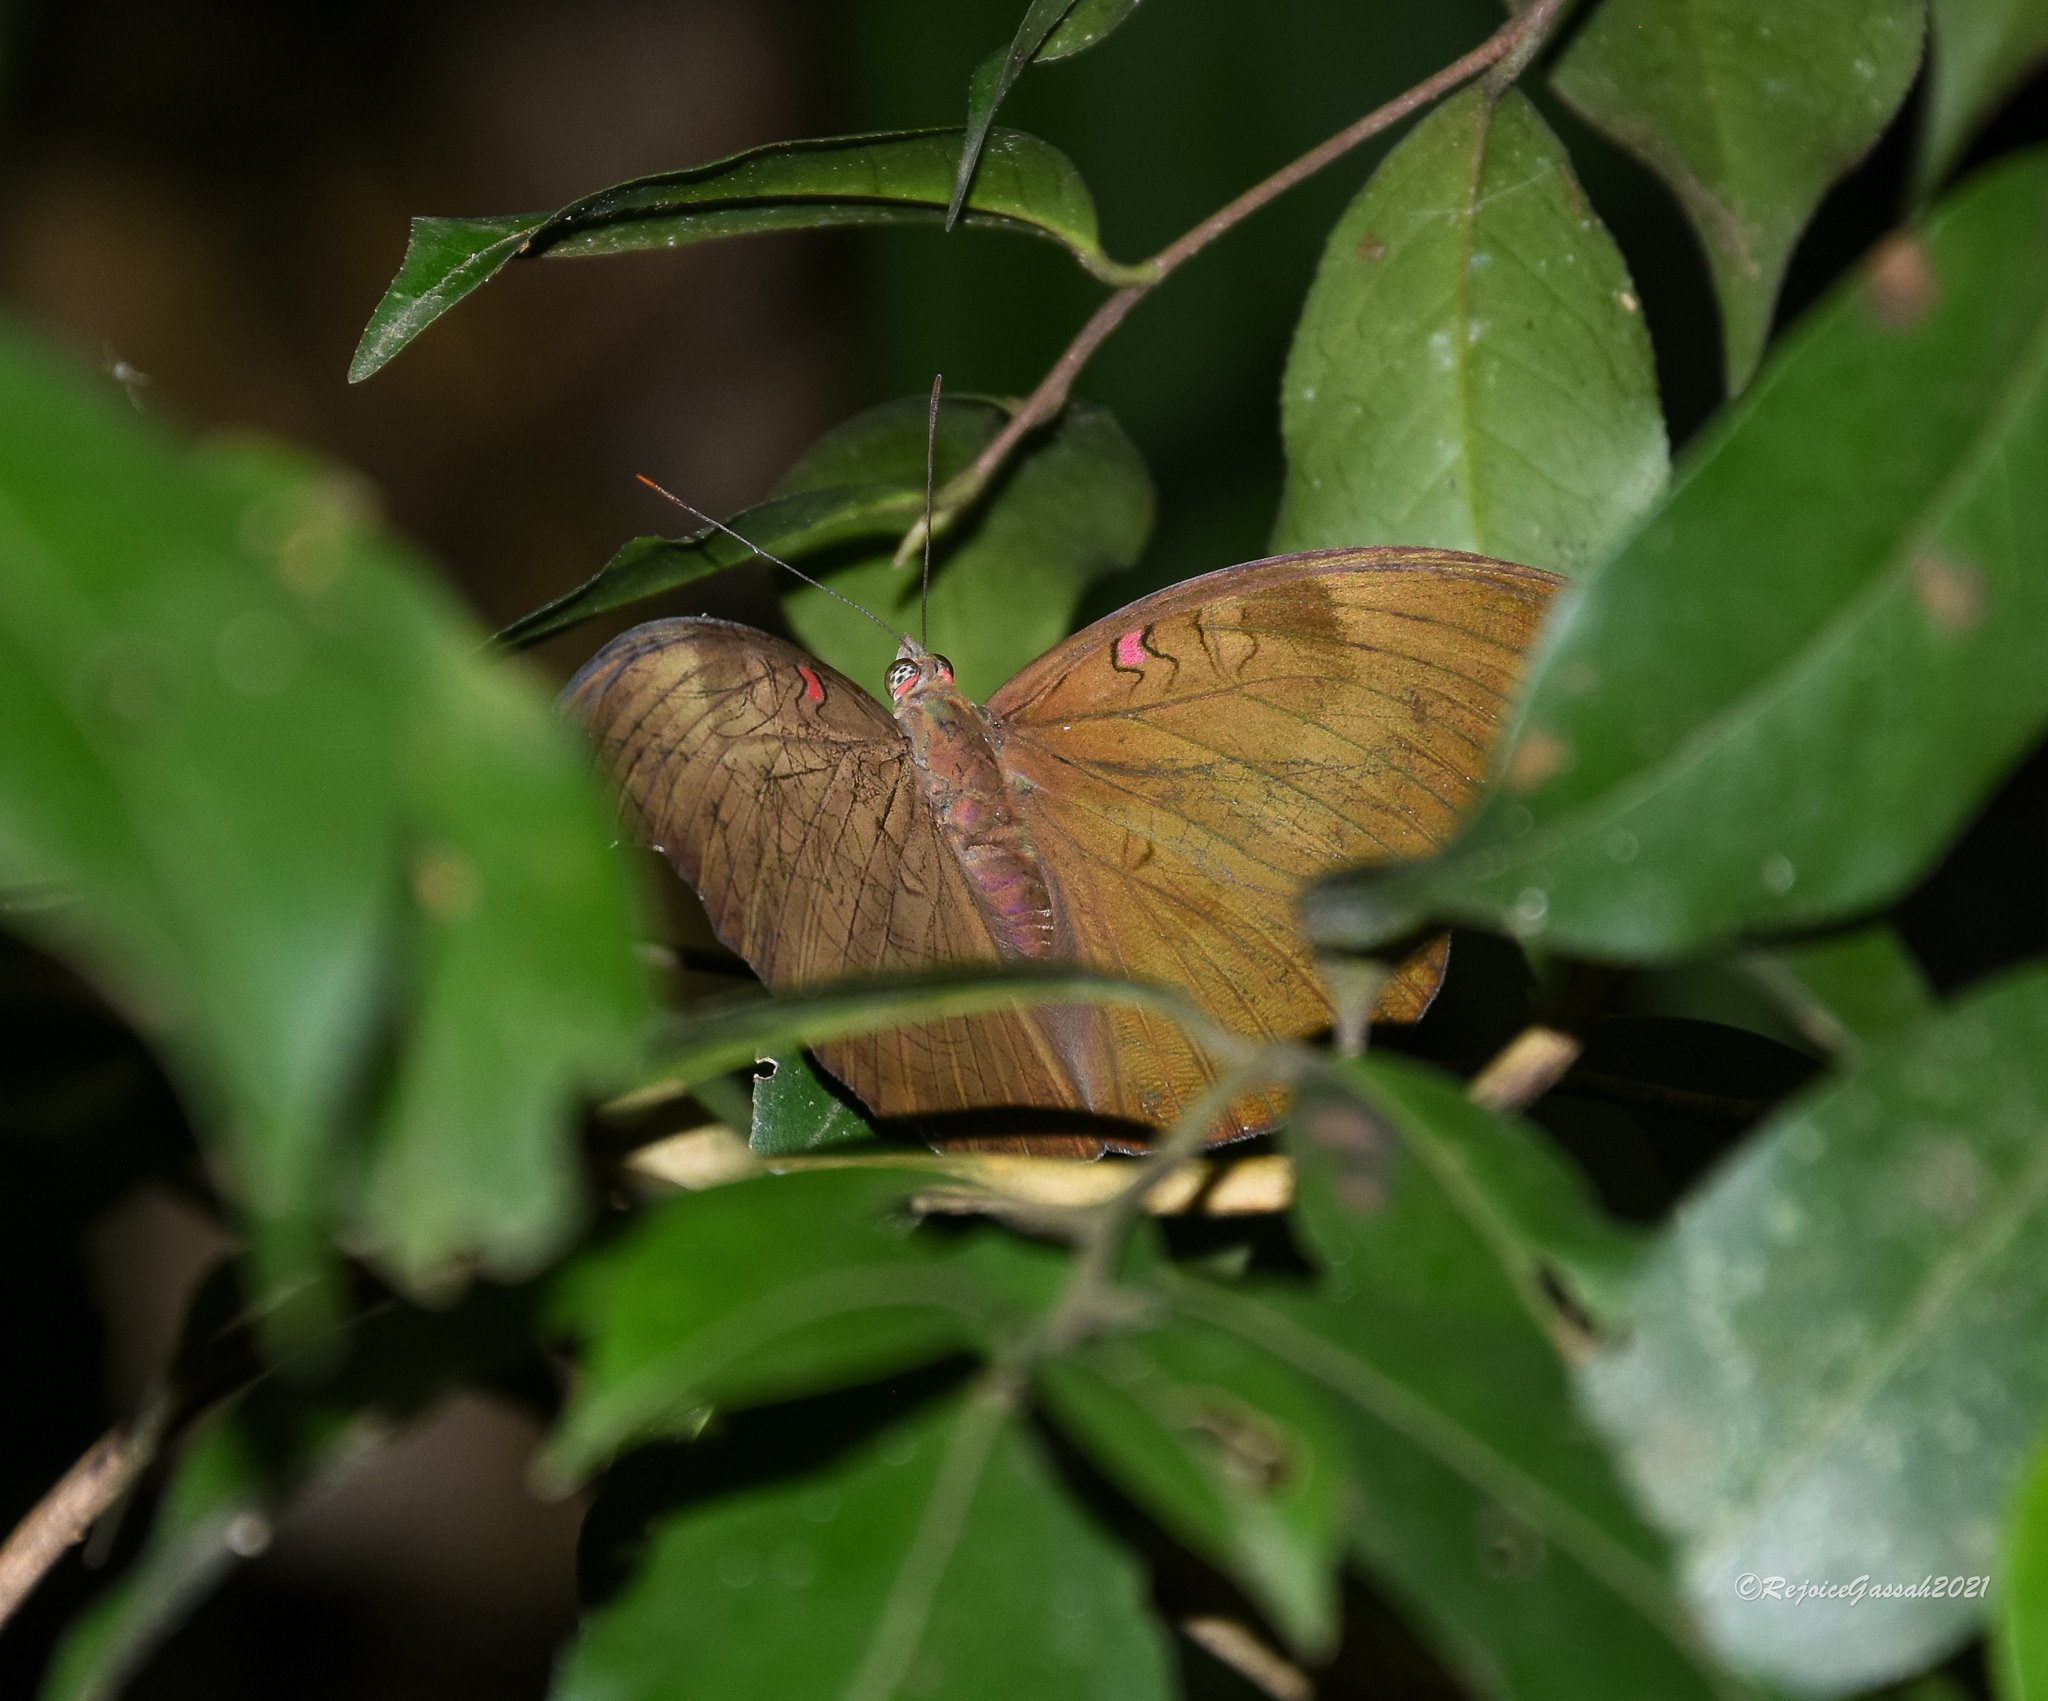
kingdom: Animalia
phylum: Arthropoda
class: Insecta
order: Lepidoptera
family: Nymphalidae
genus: Euthalia
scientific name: Euthalia Dophla evelina
